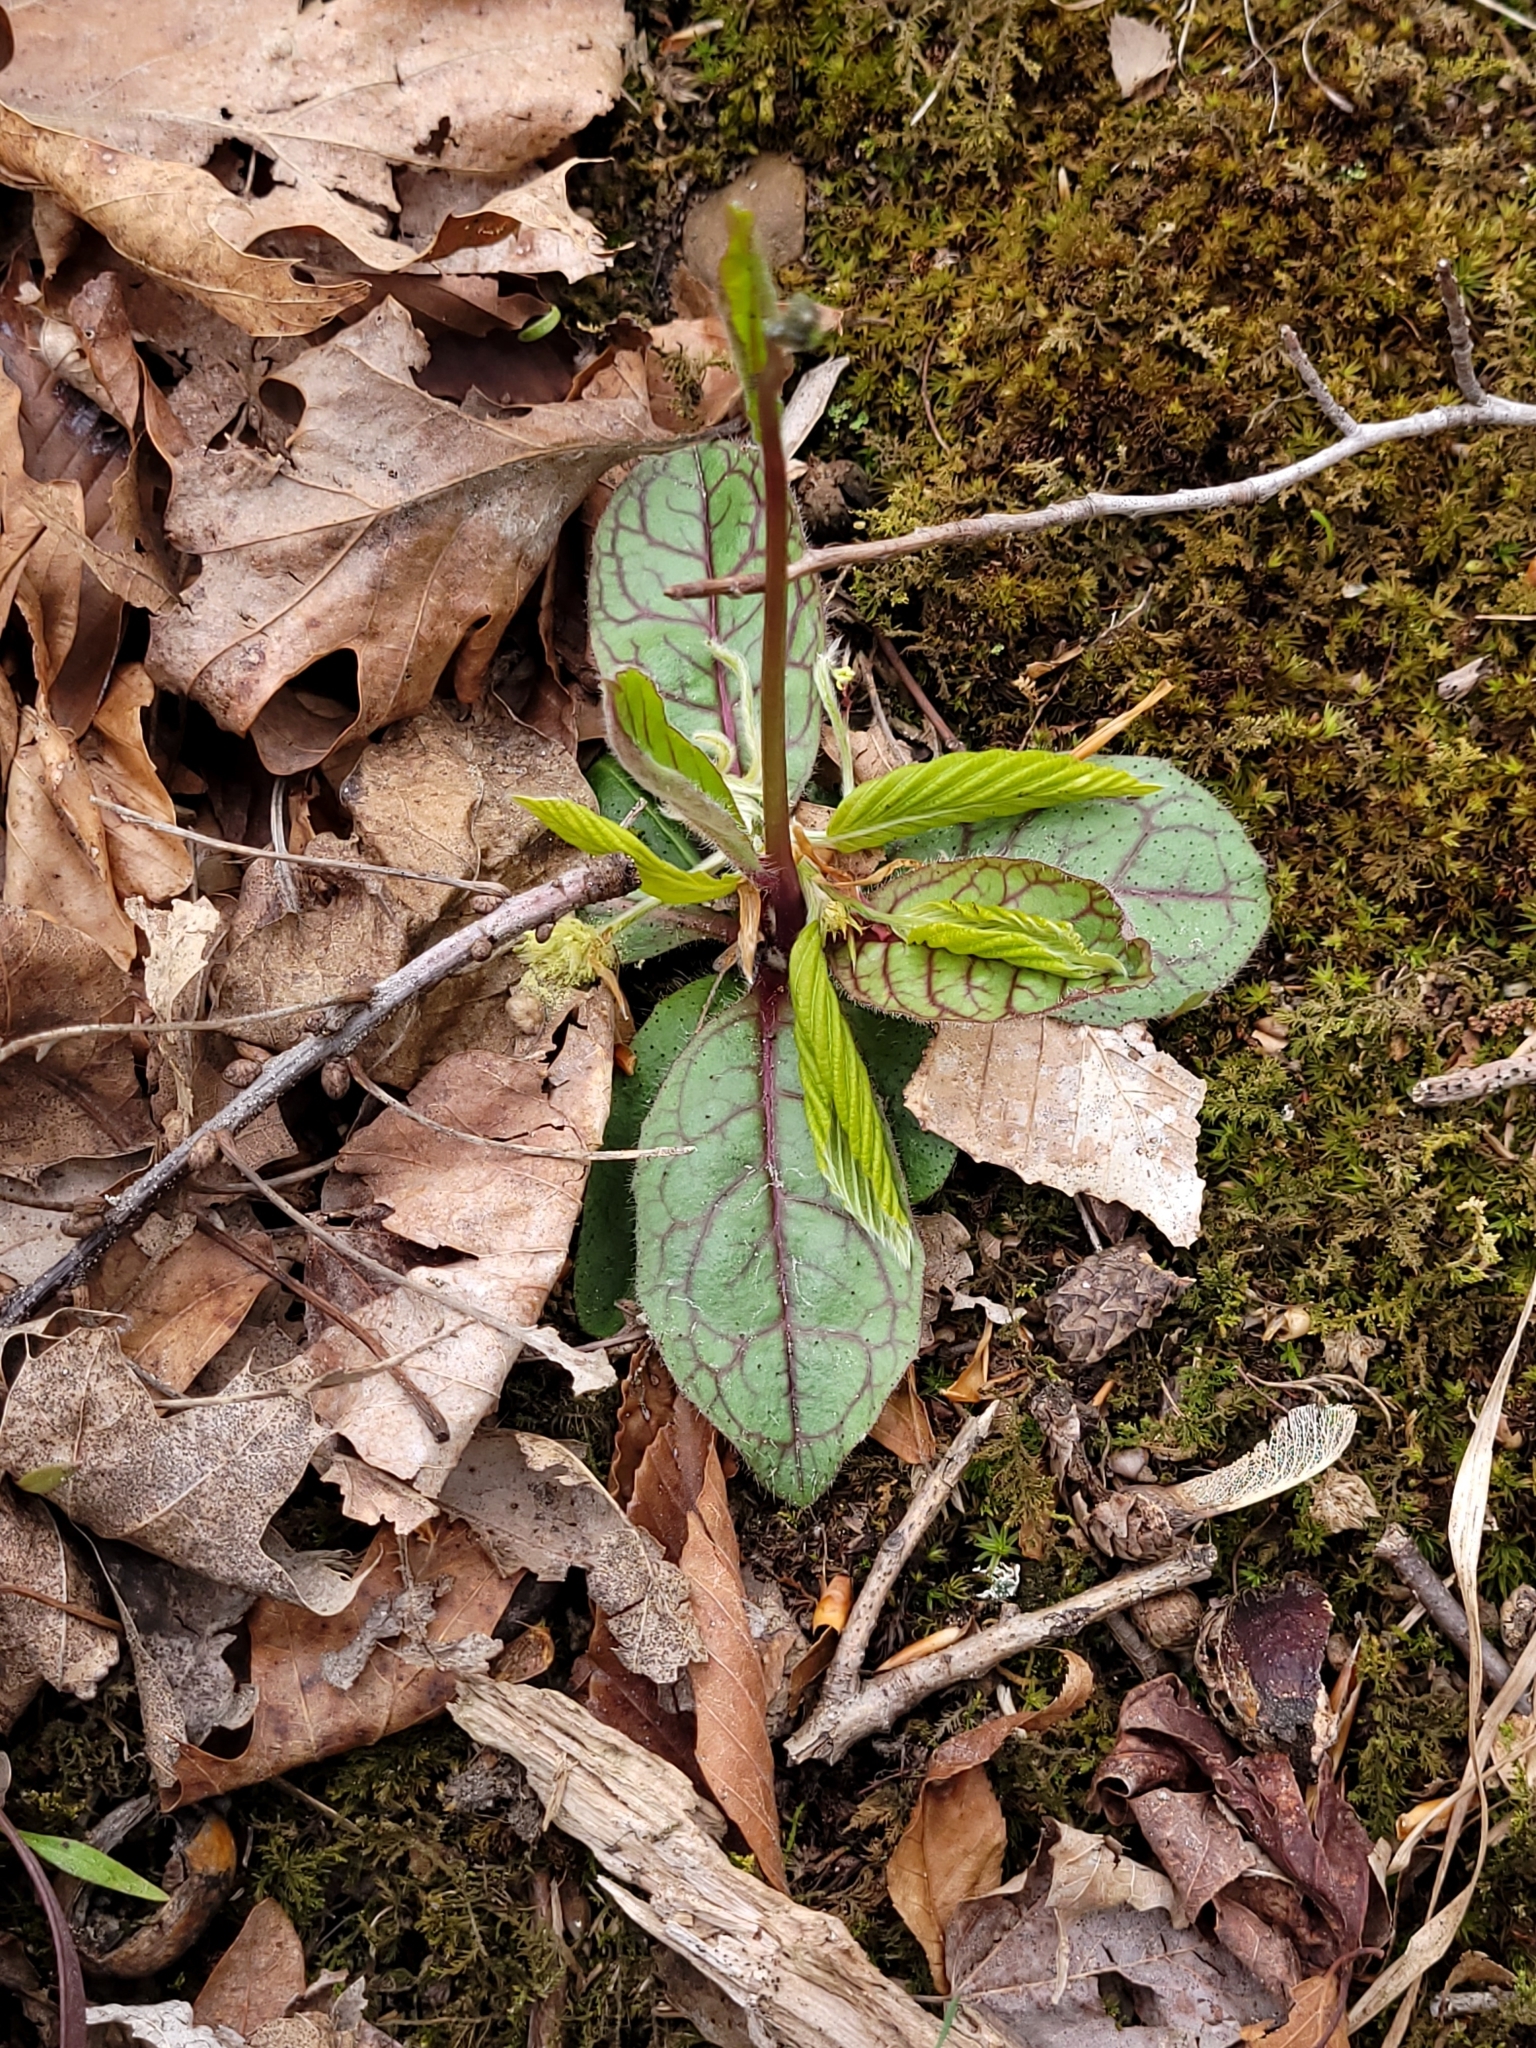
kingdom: Plantae
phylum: Tracheophyta
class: Magnoliopsida
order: Asterales
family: Asteraceae
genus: Hieracium
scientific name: Hieracium venosum
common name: Rattlesnake hawkweed
